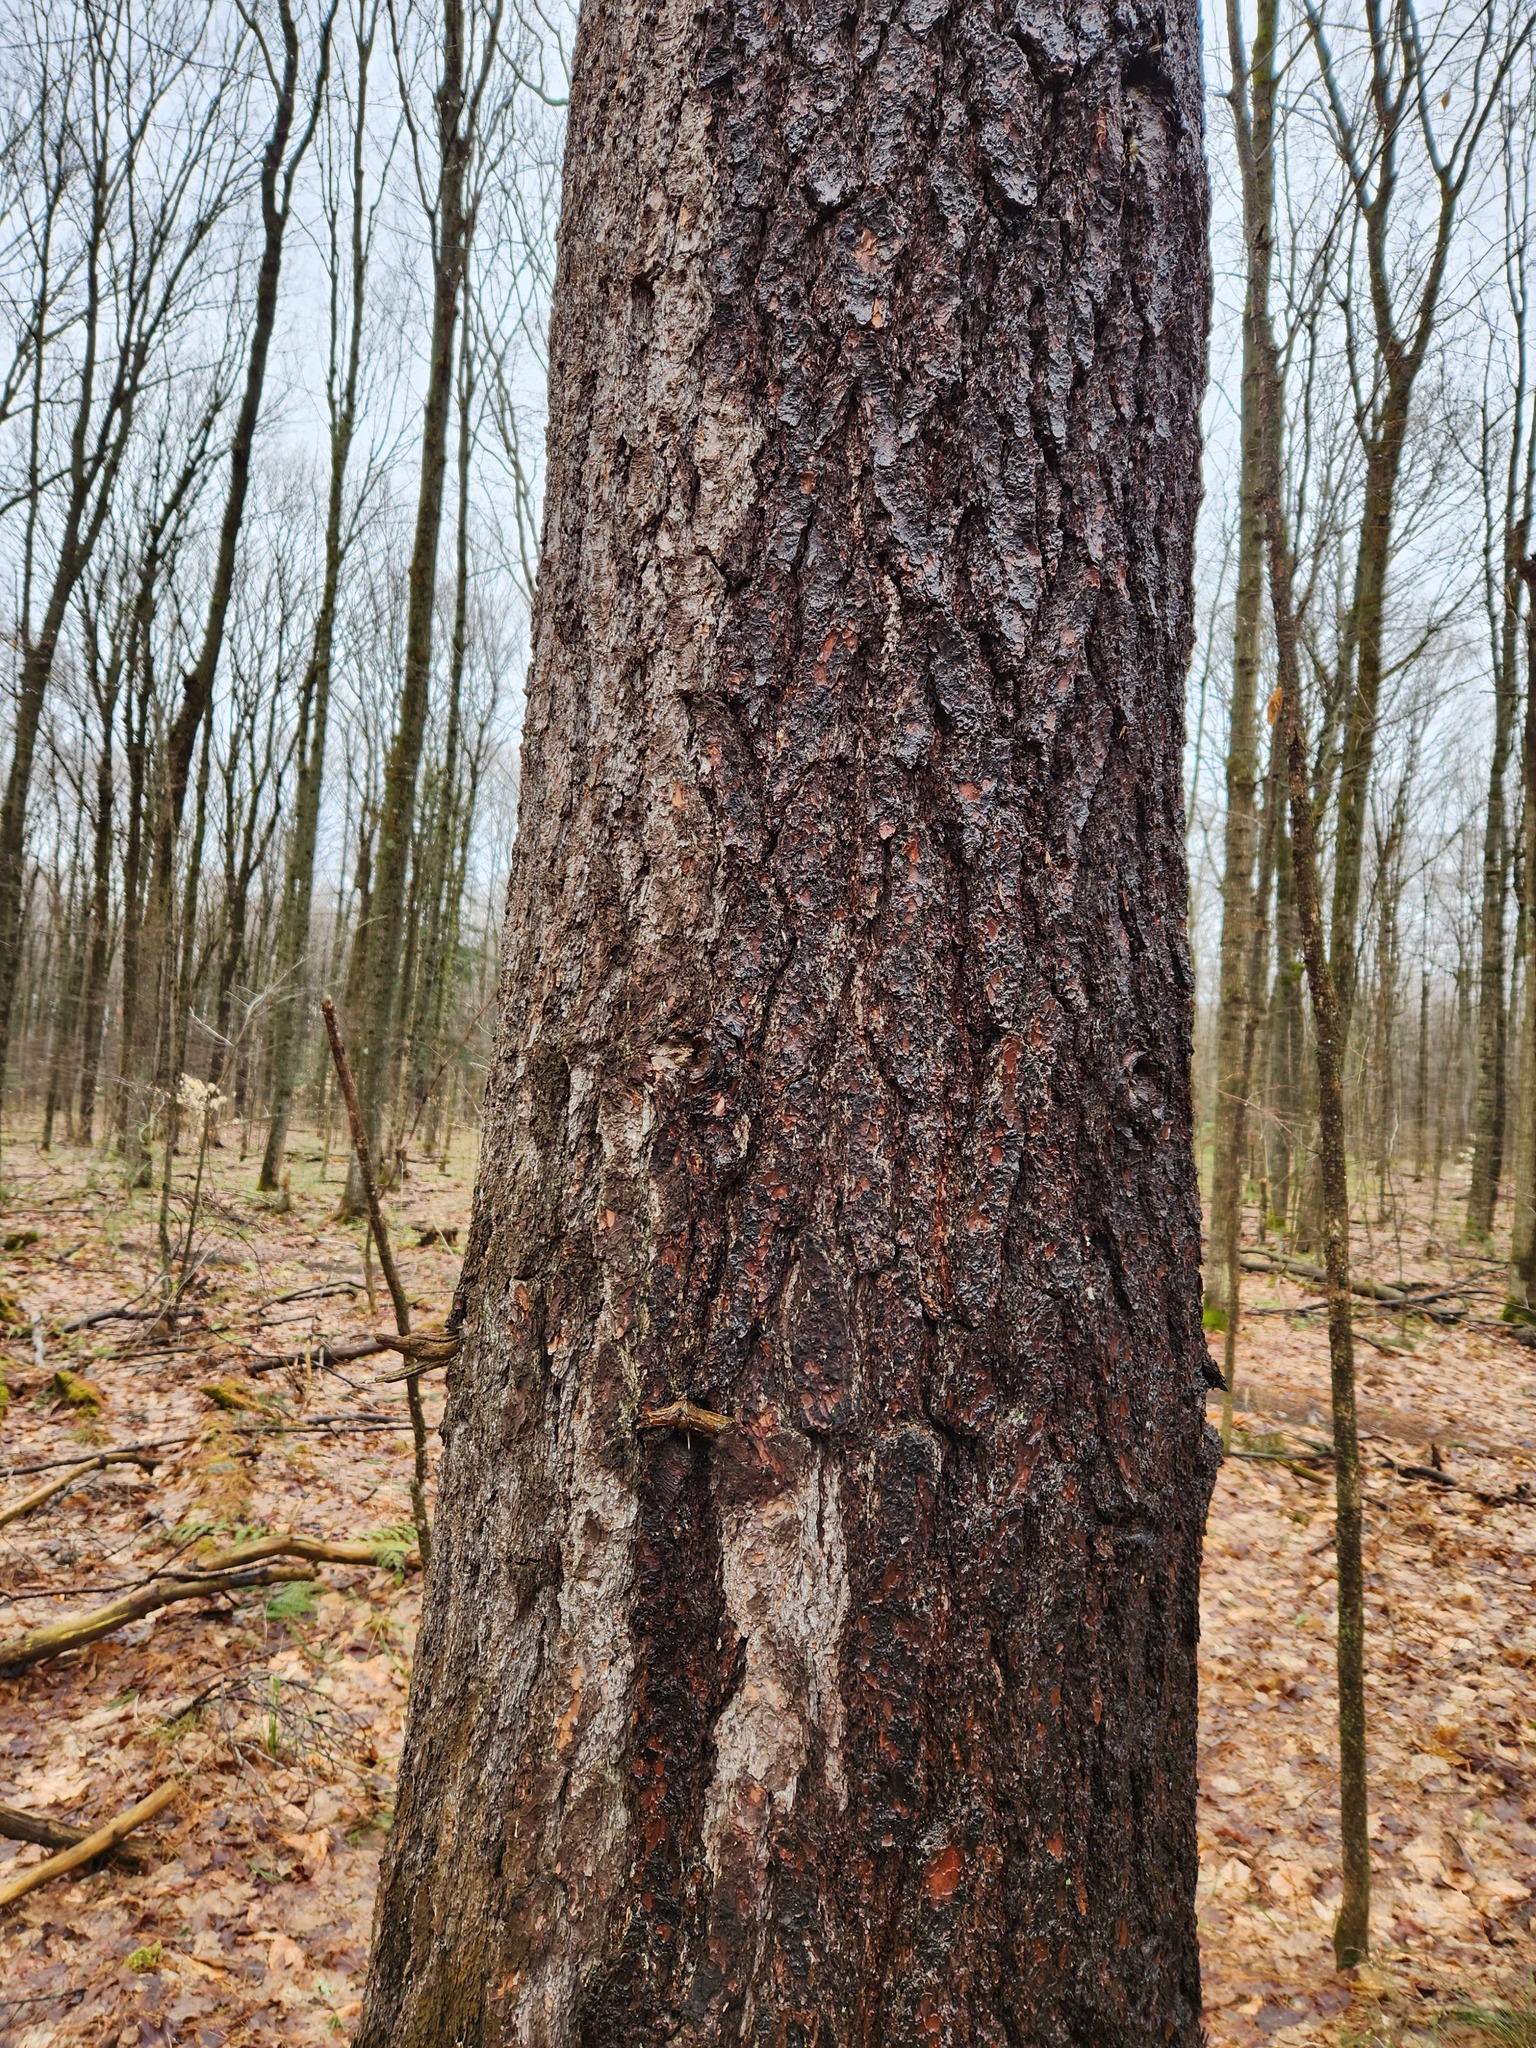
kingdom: Plantae
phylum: Tracheophyta
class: Pinopsida
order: Pinales
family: Pinaceae
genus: Pinus
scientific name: Pinus strobus
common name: Weymouth pine
